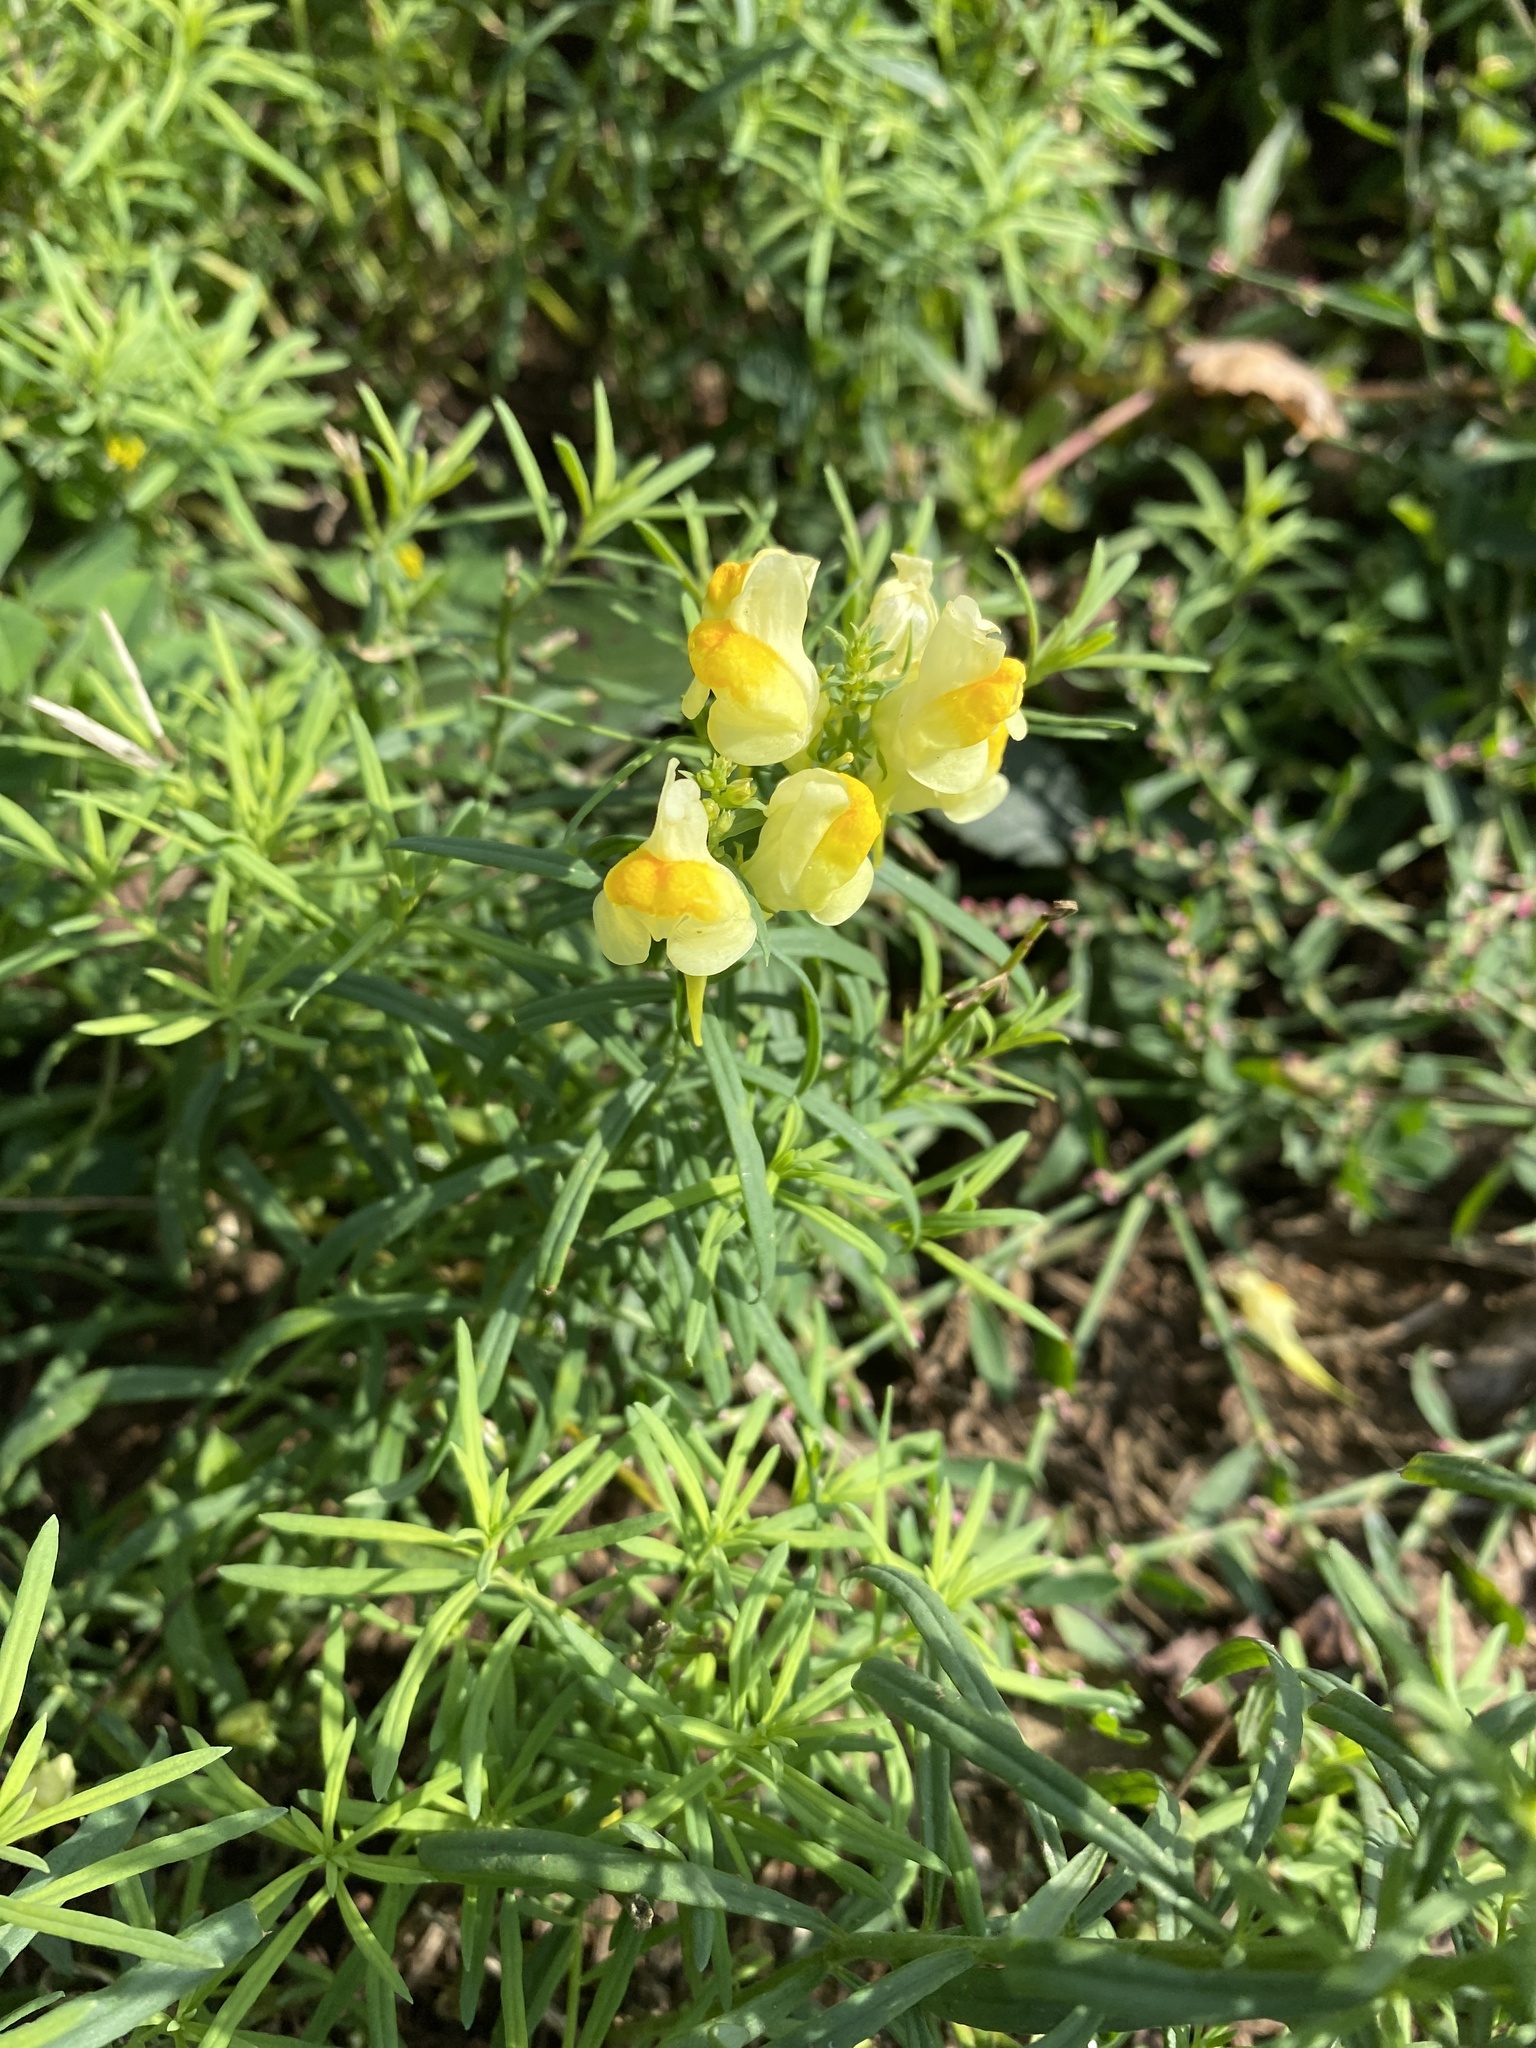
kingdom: Plantae
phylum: Tracheophyta
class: Magnoliopsida
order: Lamiales
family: Plantaginaceae
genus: Linaria
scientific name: Linaria vulgaris
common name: Butter and eggs
